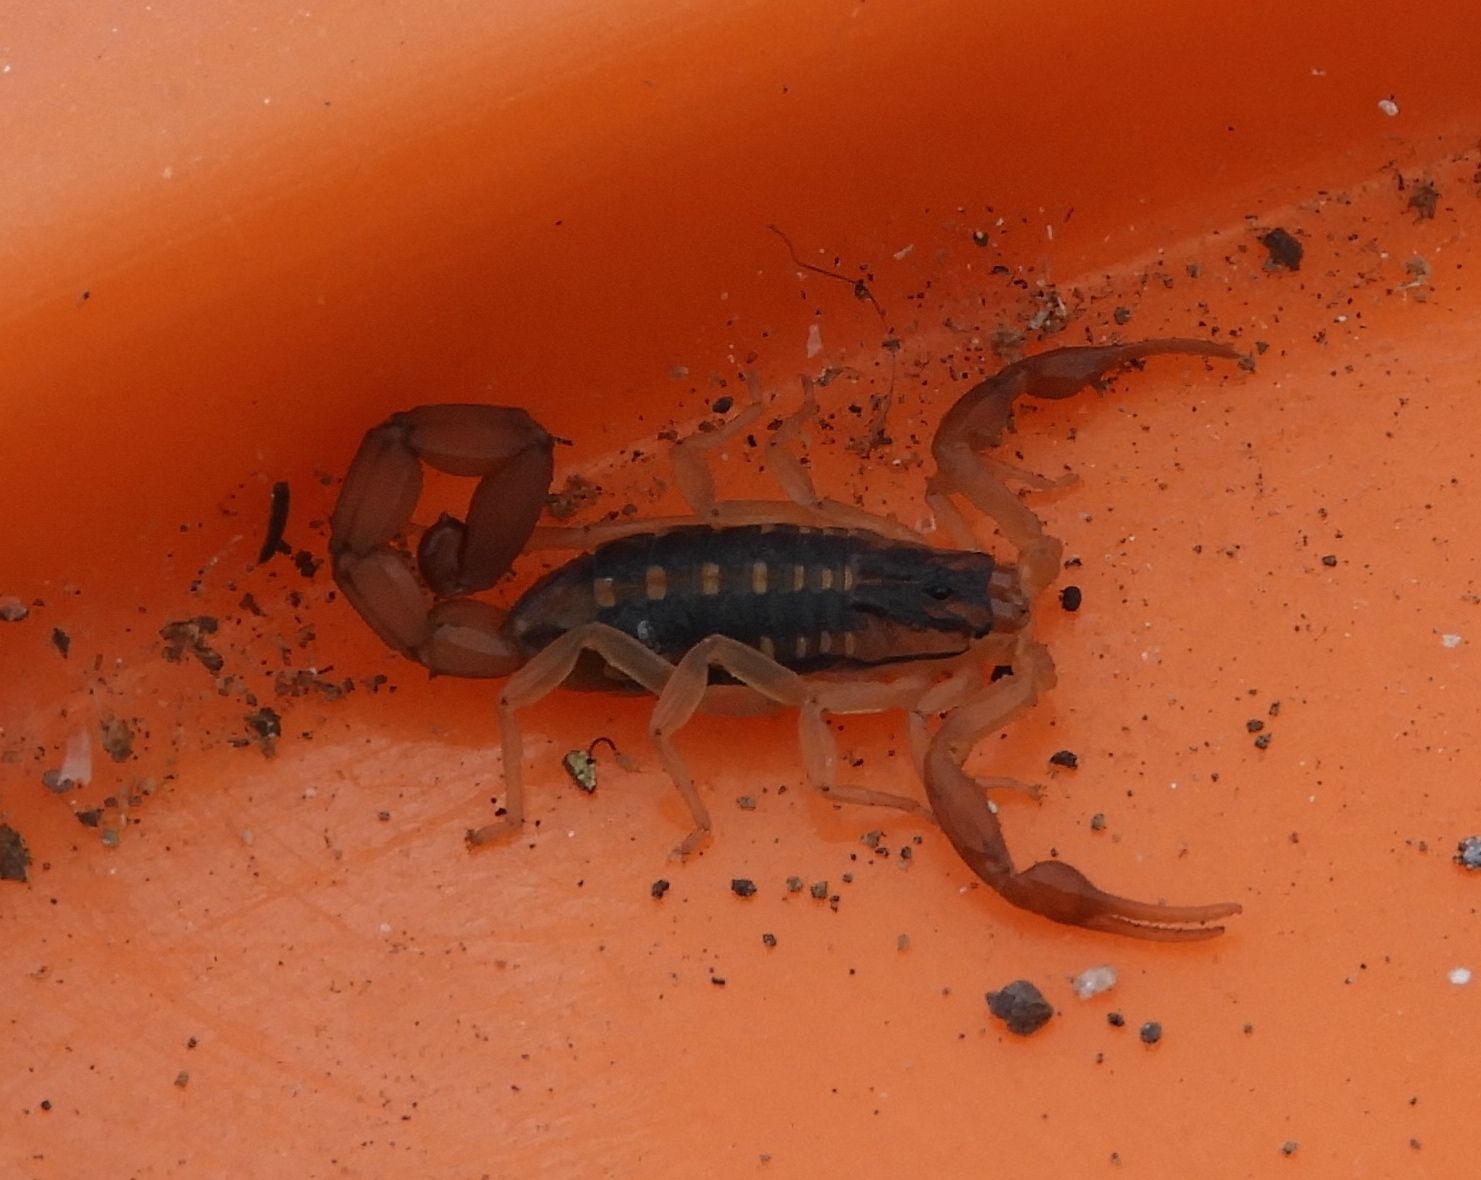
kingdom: Animalia
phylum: Arthropoda
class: Arachnida
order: Scorpiones
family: Buthidae
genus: Centruroides
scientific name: Centruroides baldazoi
